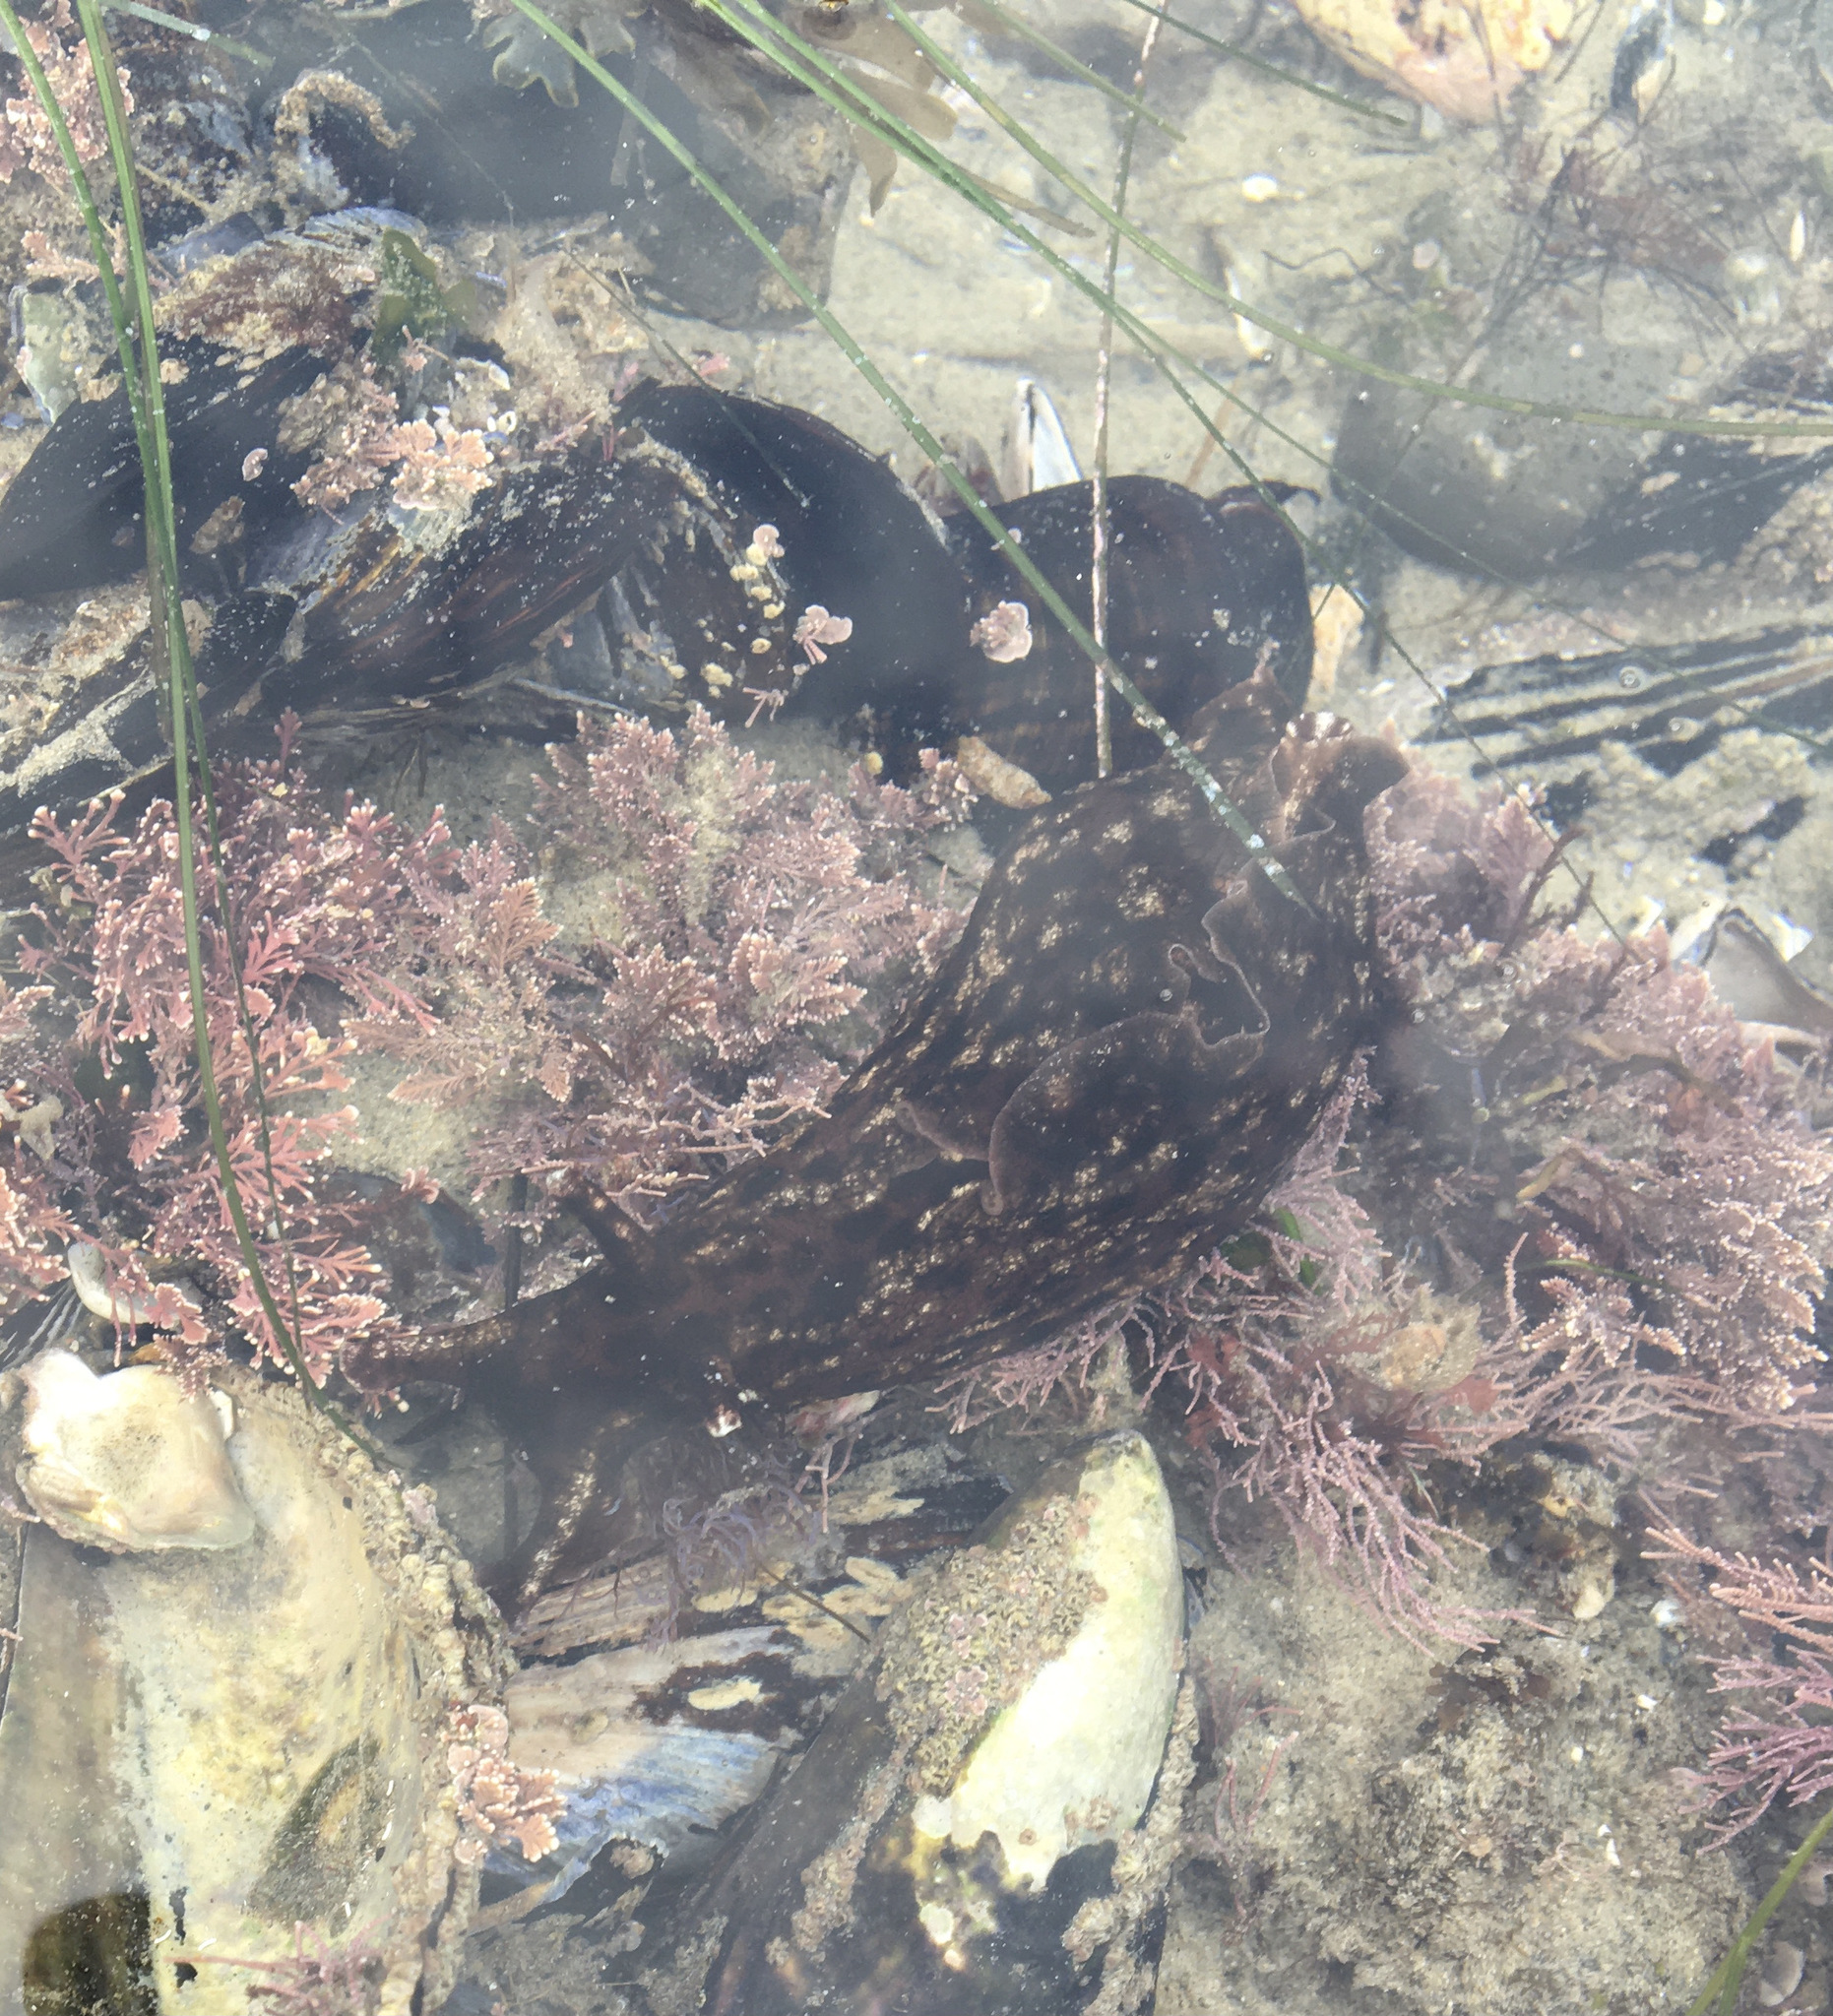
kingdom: Animalia
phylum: Mollusca
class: Gastropoda
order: Aplysiida
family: Aplysiidae
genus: Aplysia
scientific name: Aplysia californica
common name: California seahare
